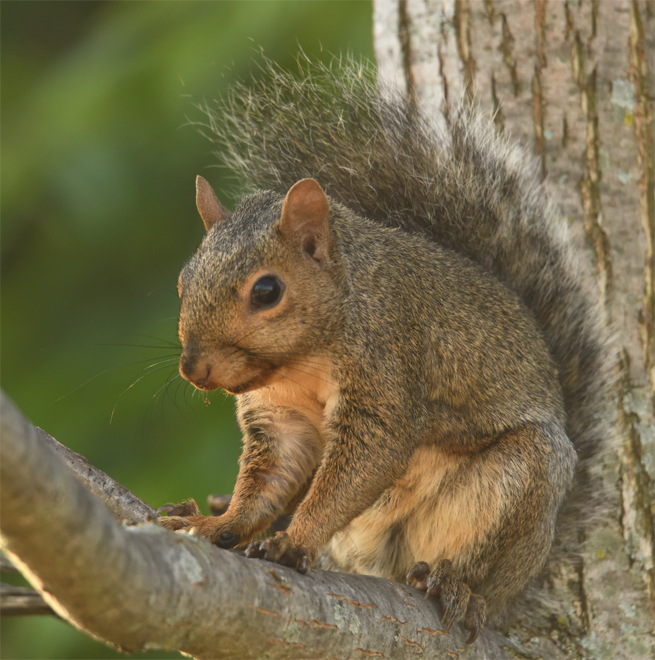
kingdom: Animalia
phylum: Chordata
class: Mammalia
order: Rodentia
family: Sciuridae
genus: Sciurus
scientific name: Sciurus carolinensis
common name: Eastern gray squirrel
